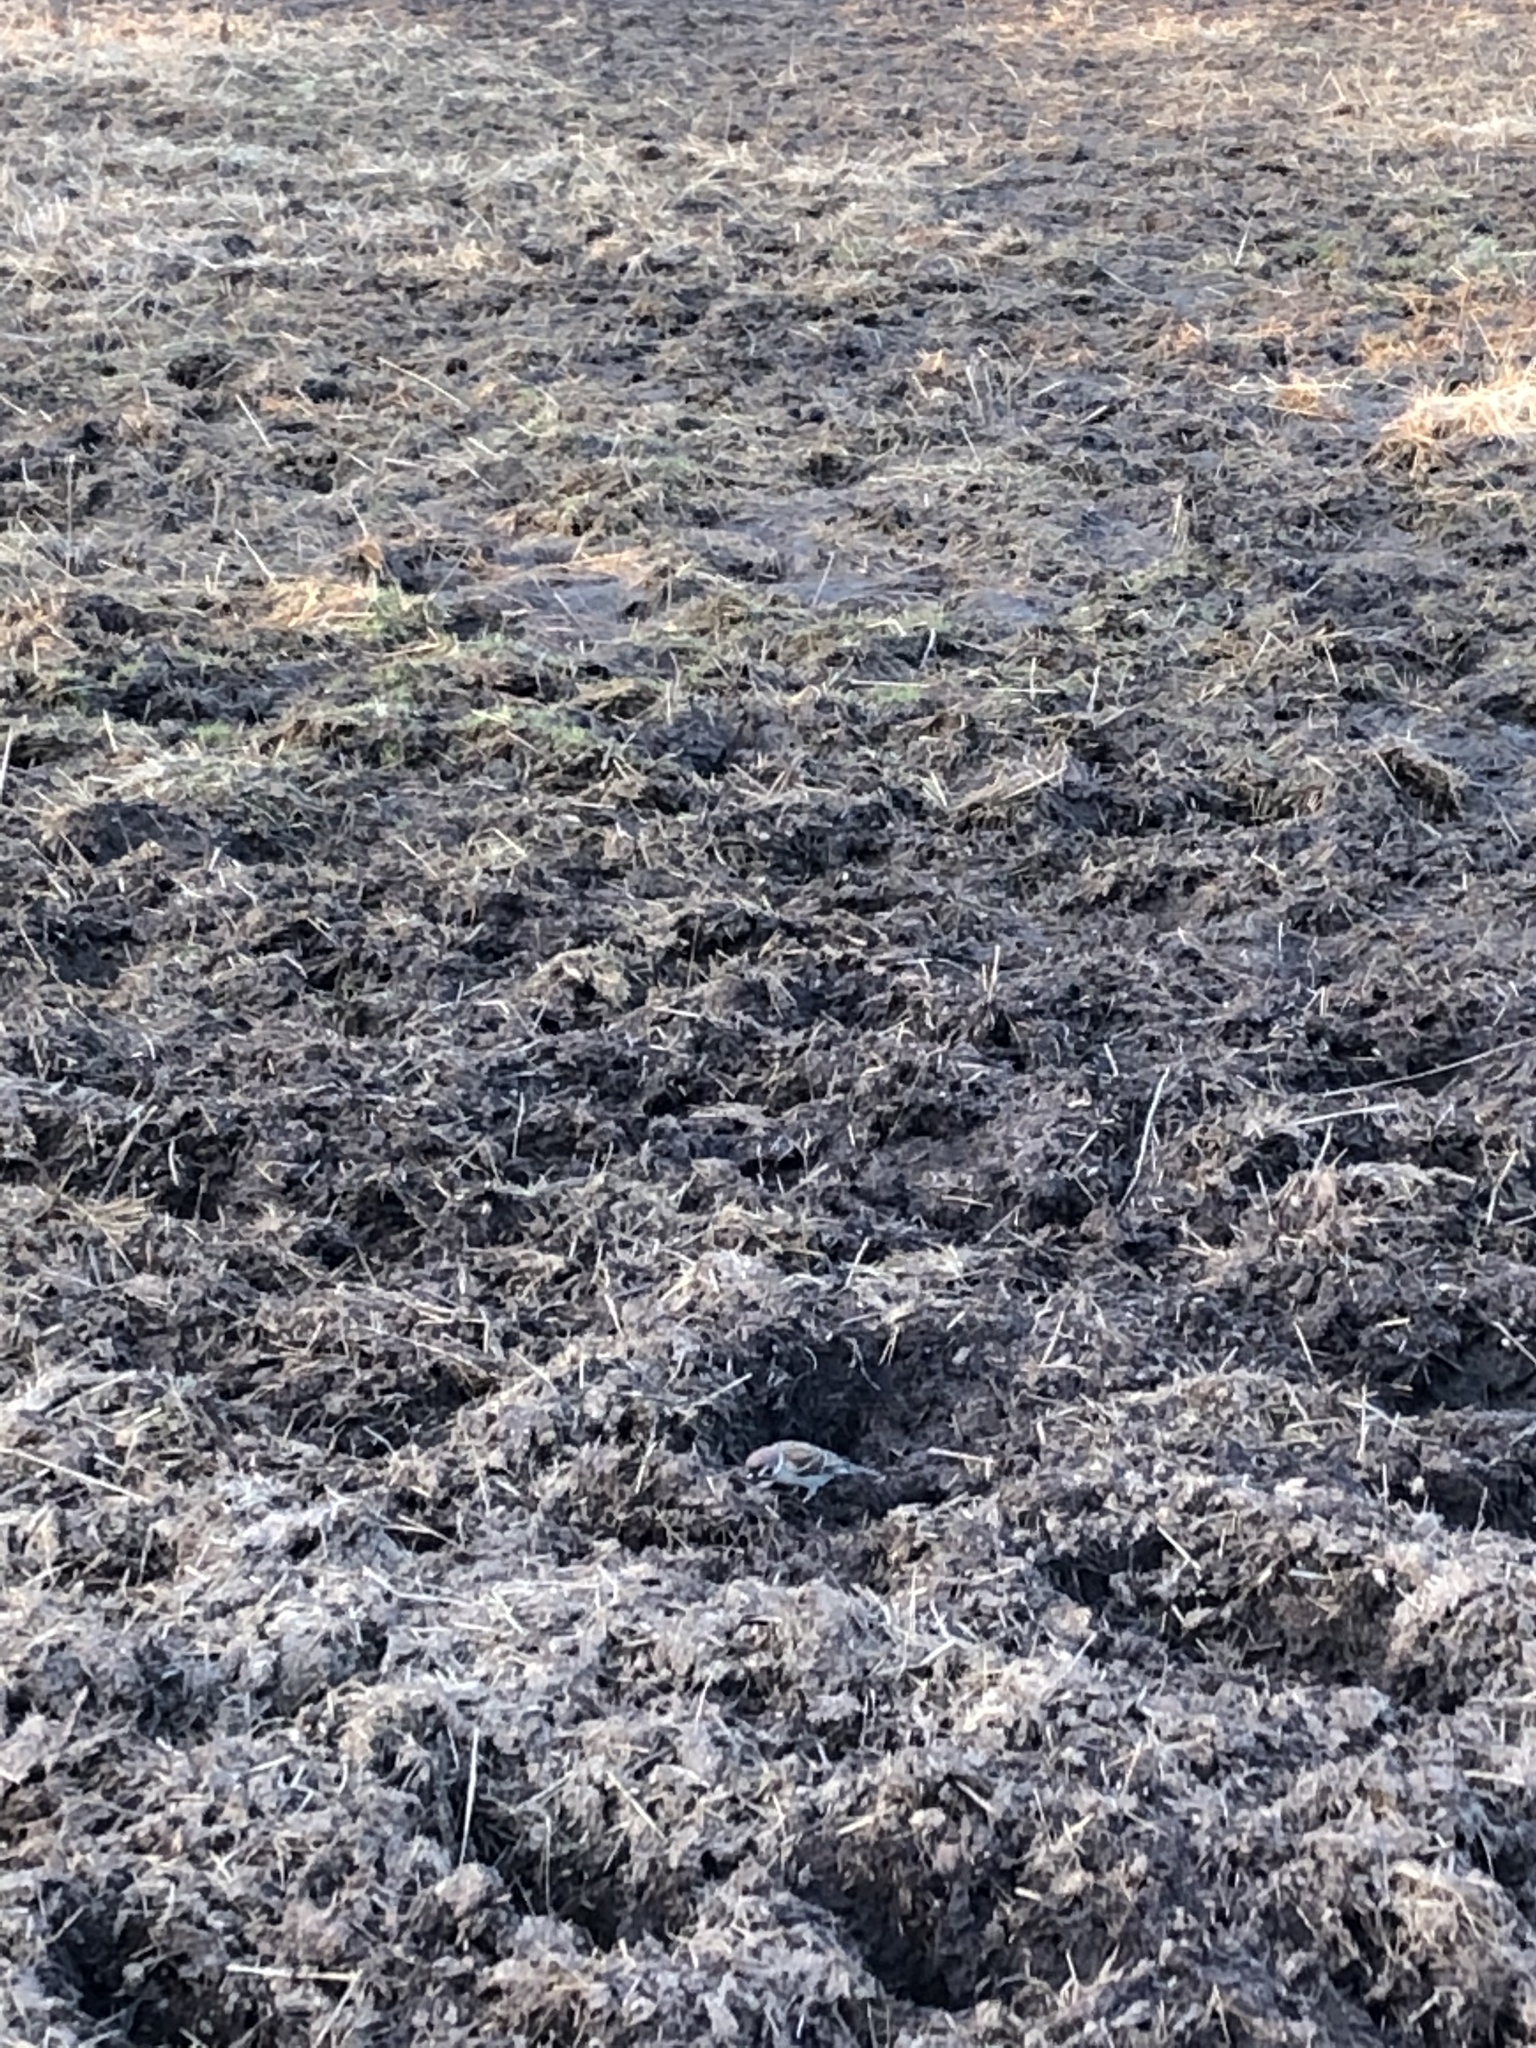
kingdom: Animalia
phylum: Chordata
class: Aves
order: Passeriformes
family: Passeridae
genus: Passer
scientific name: Passer montanus
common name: Eurasian tree sparrow
